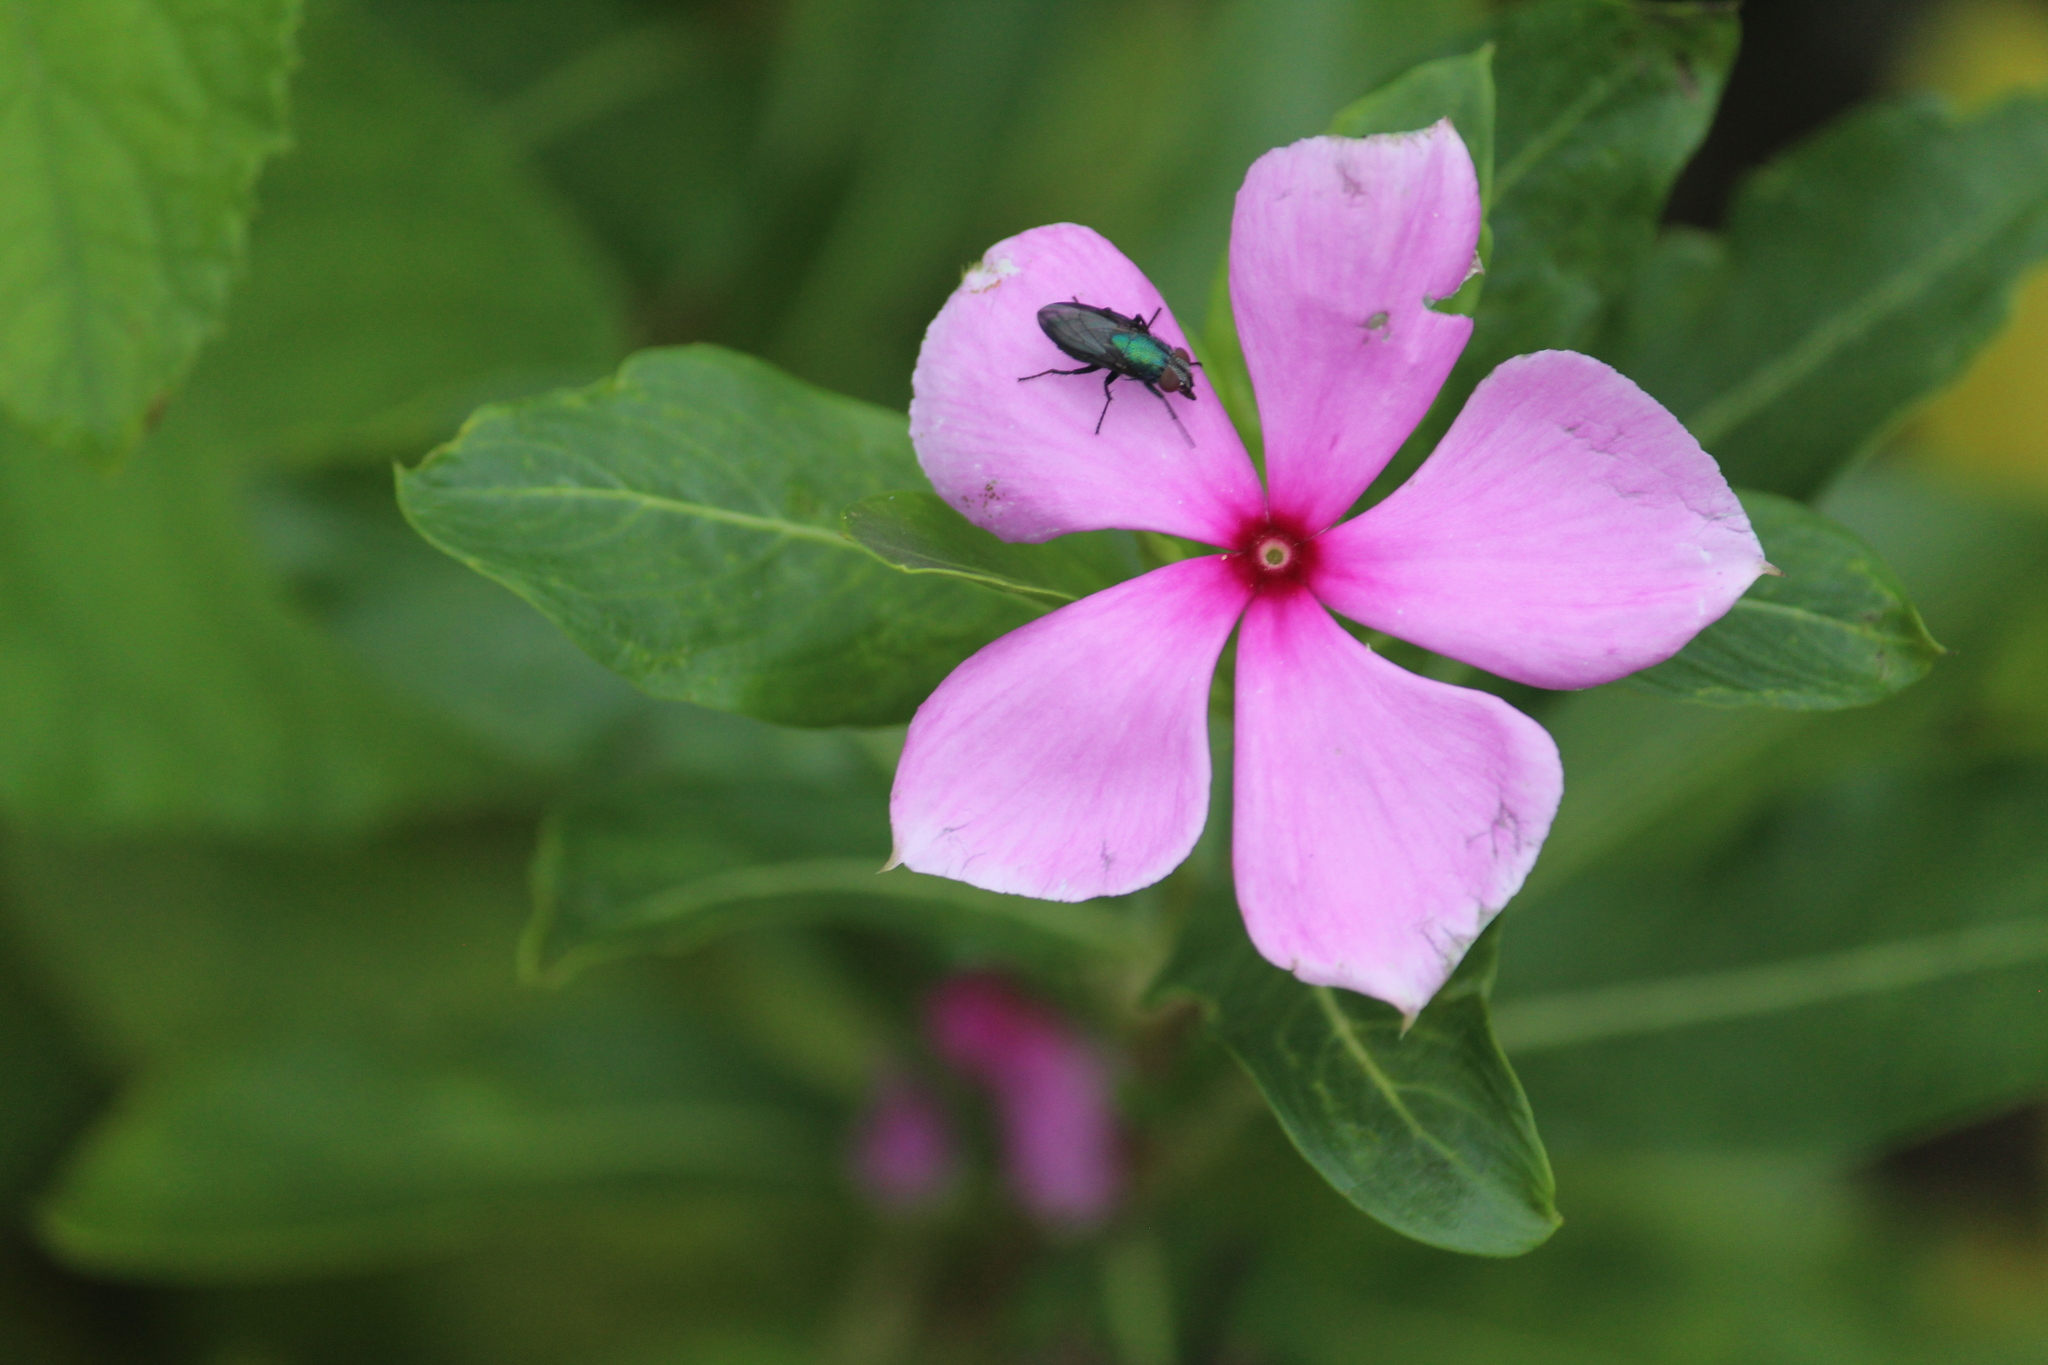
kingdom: Plantae
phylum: Tracheophyta
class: Magnoliopsida
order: Gentianales
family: Apocynaceae
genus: Catharanthus
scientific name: Catharanthus roseus
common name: Madagascar periwinkle
